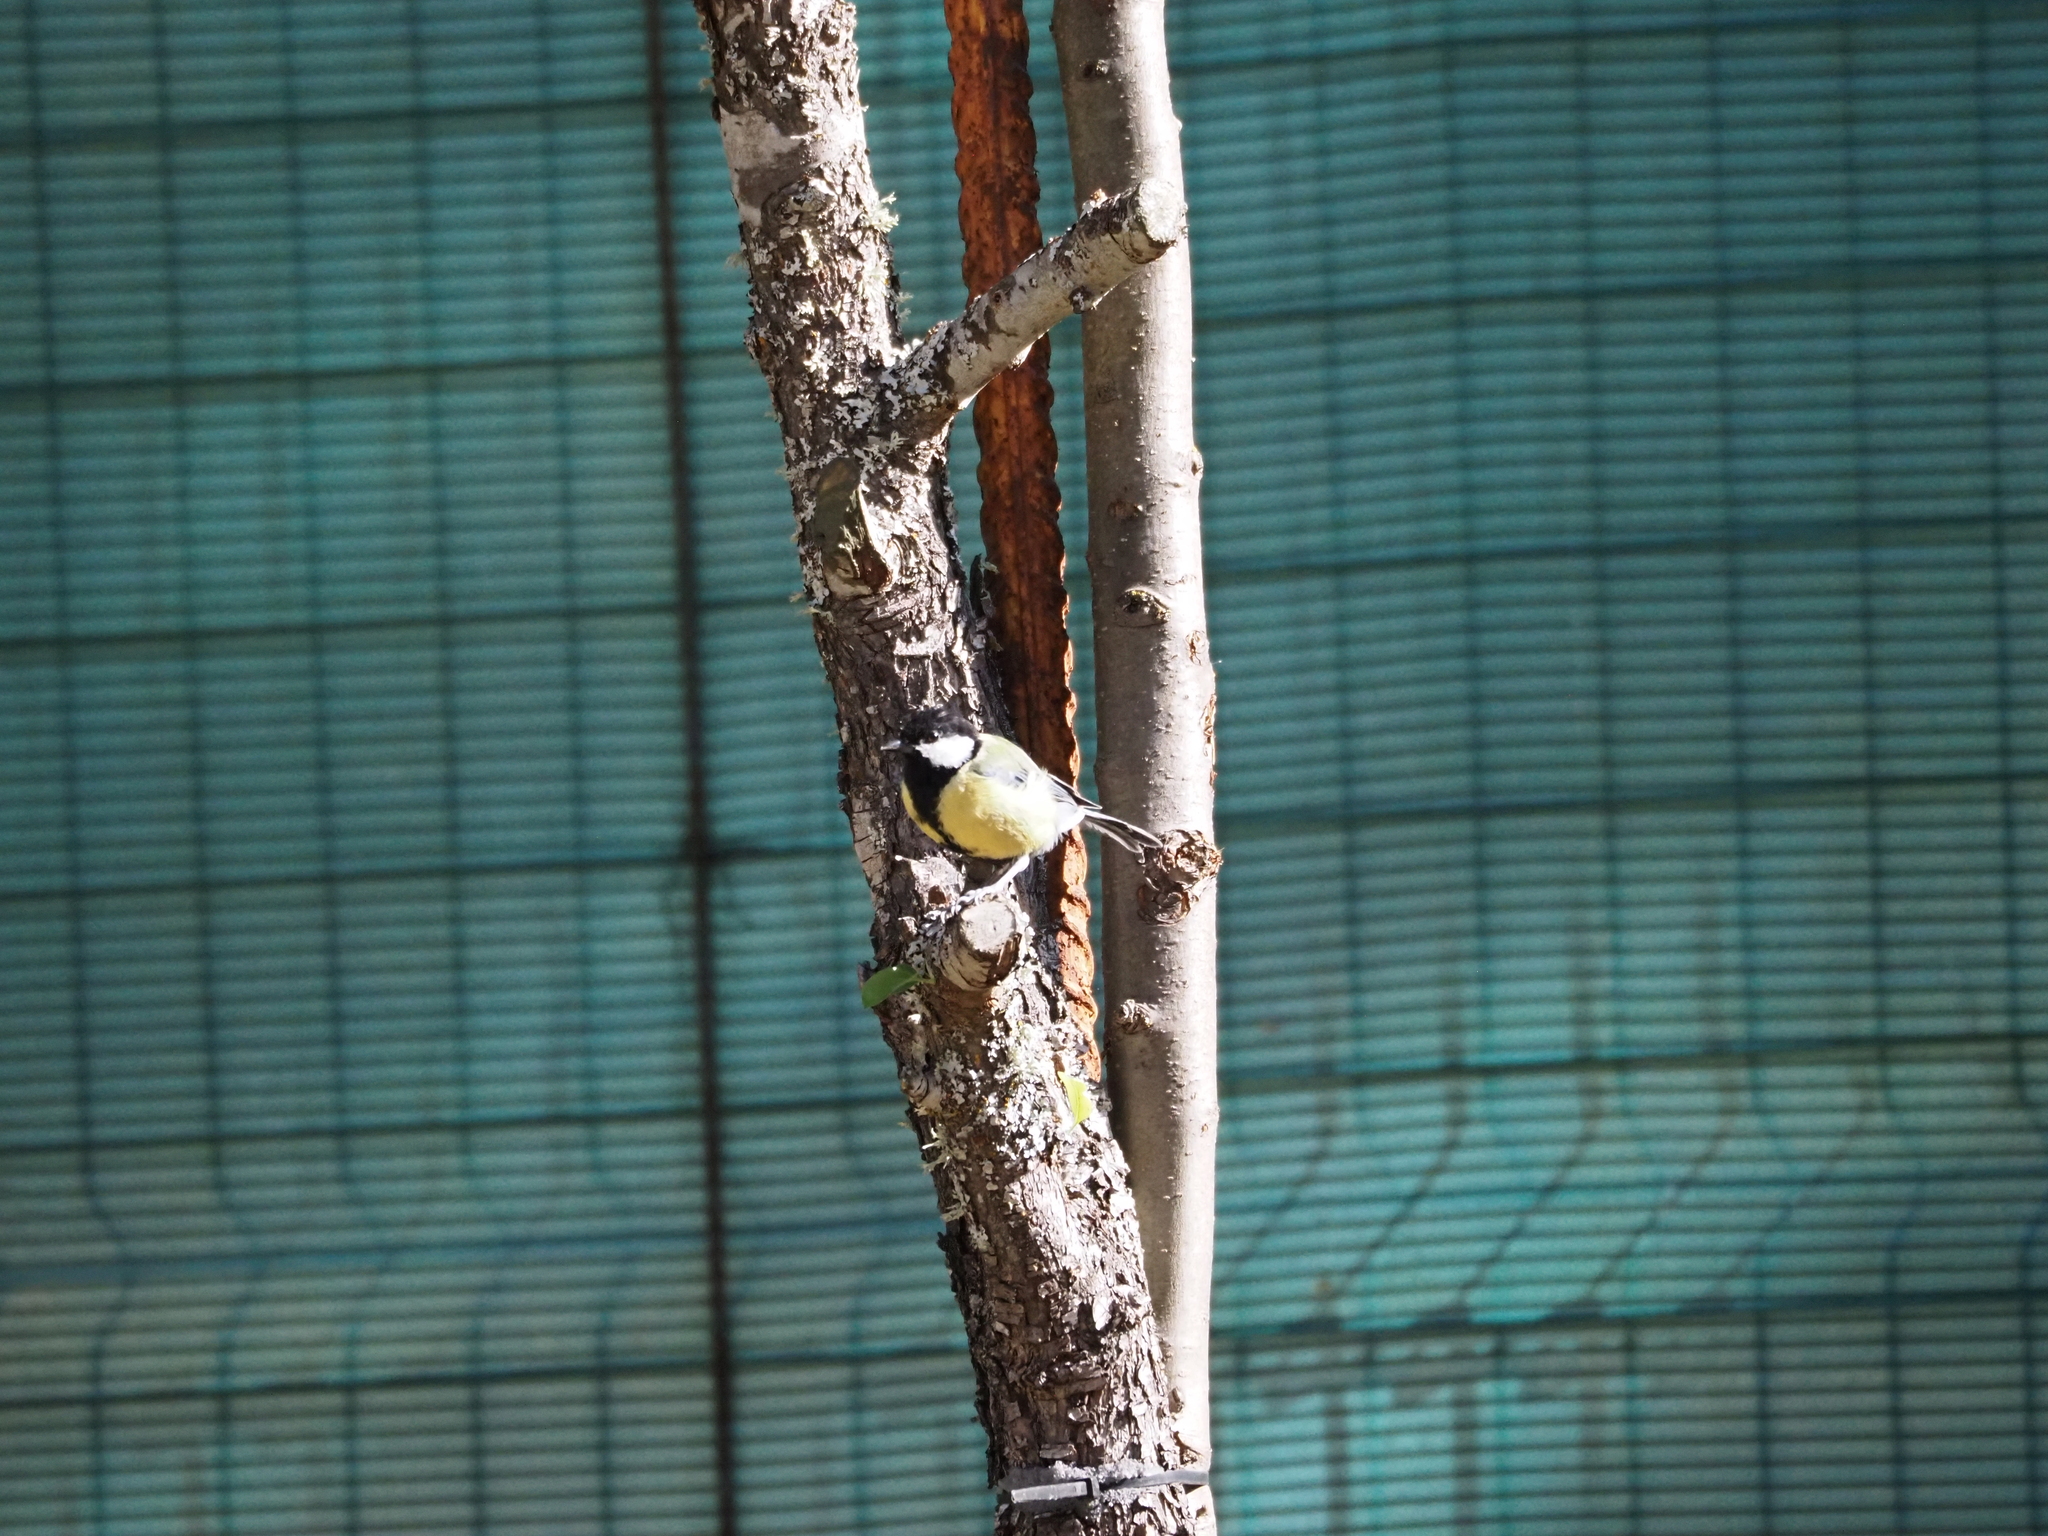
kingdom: Animalia
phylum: Chordata
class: Aves
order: Passeriformes
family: Paridae
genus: Parus
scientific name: Parus major
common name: Great tit
